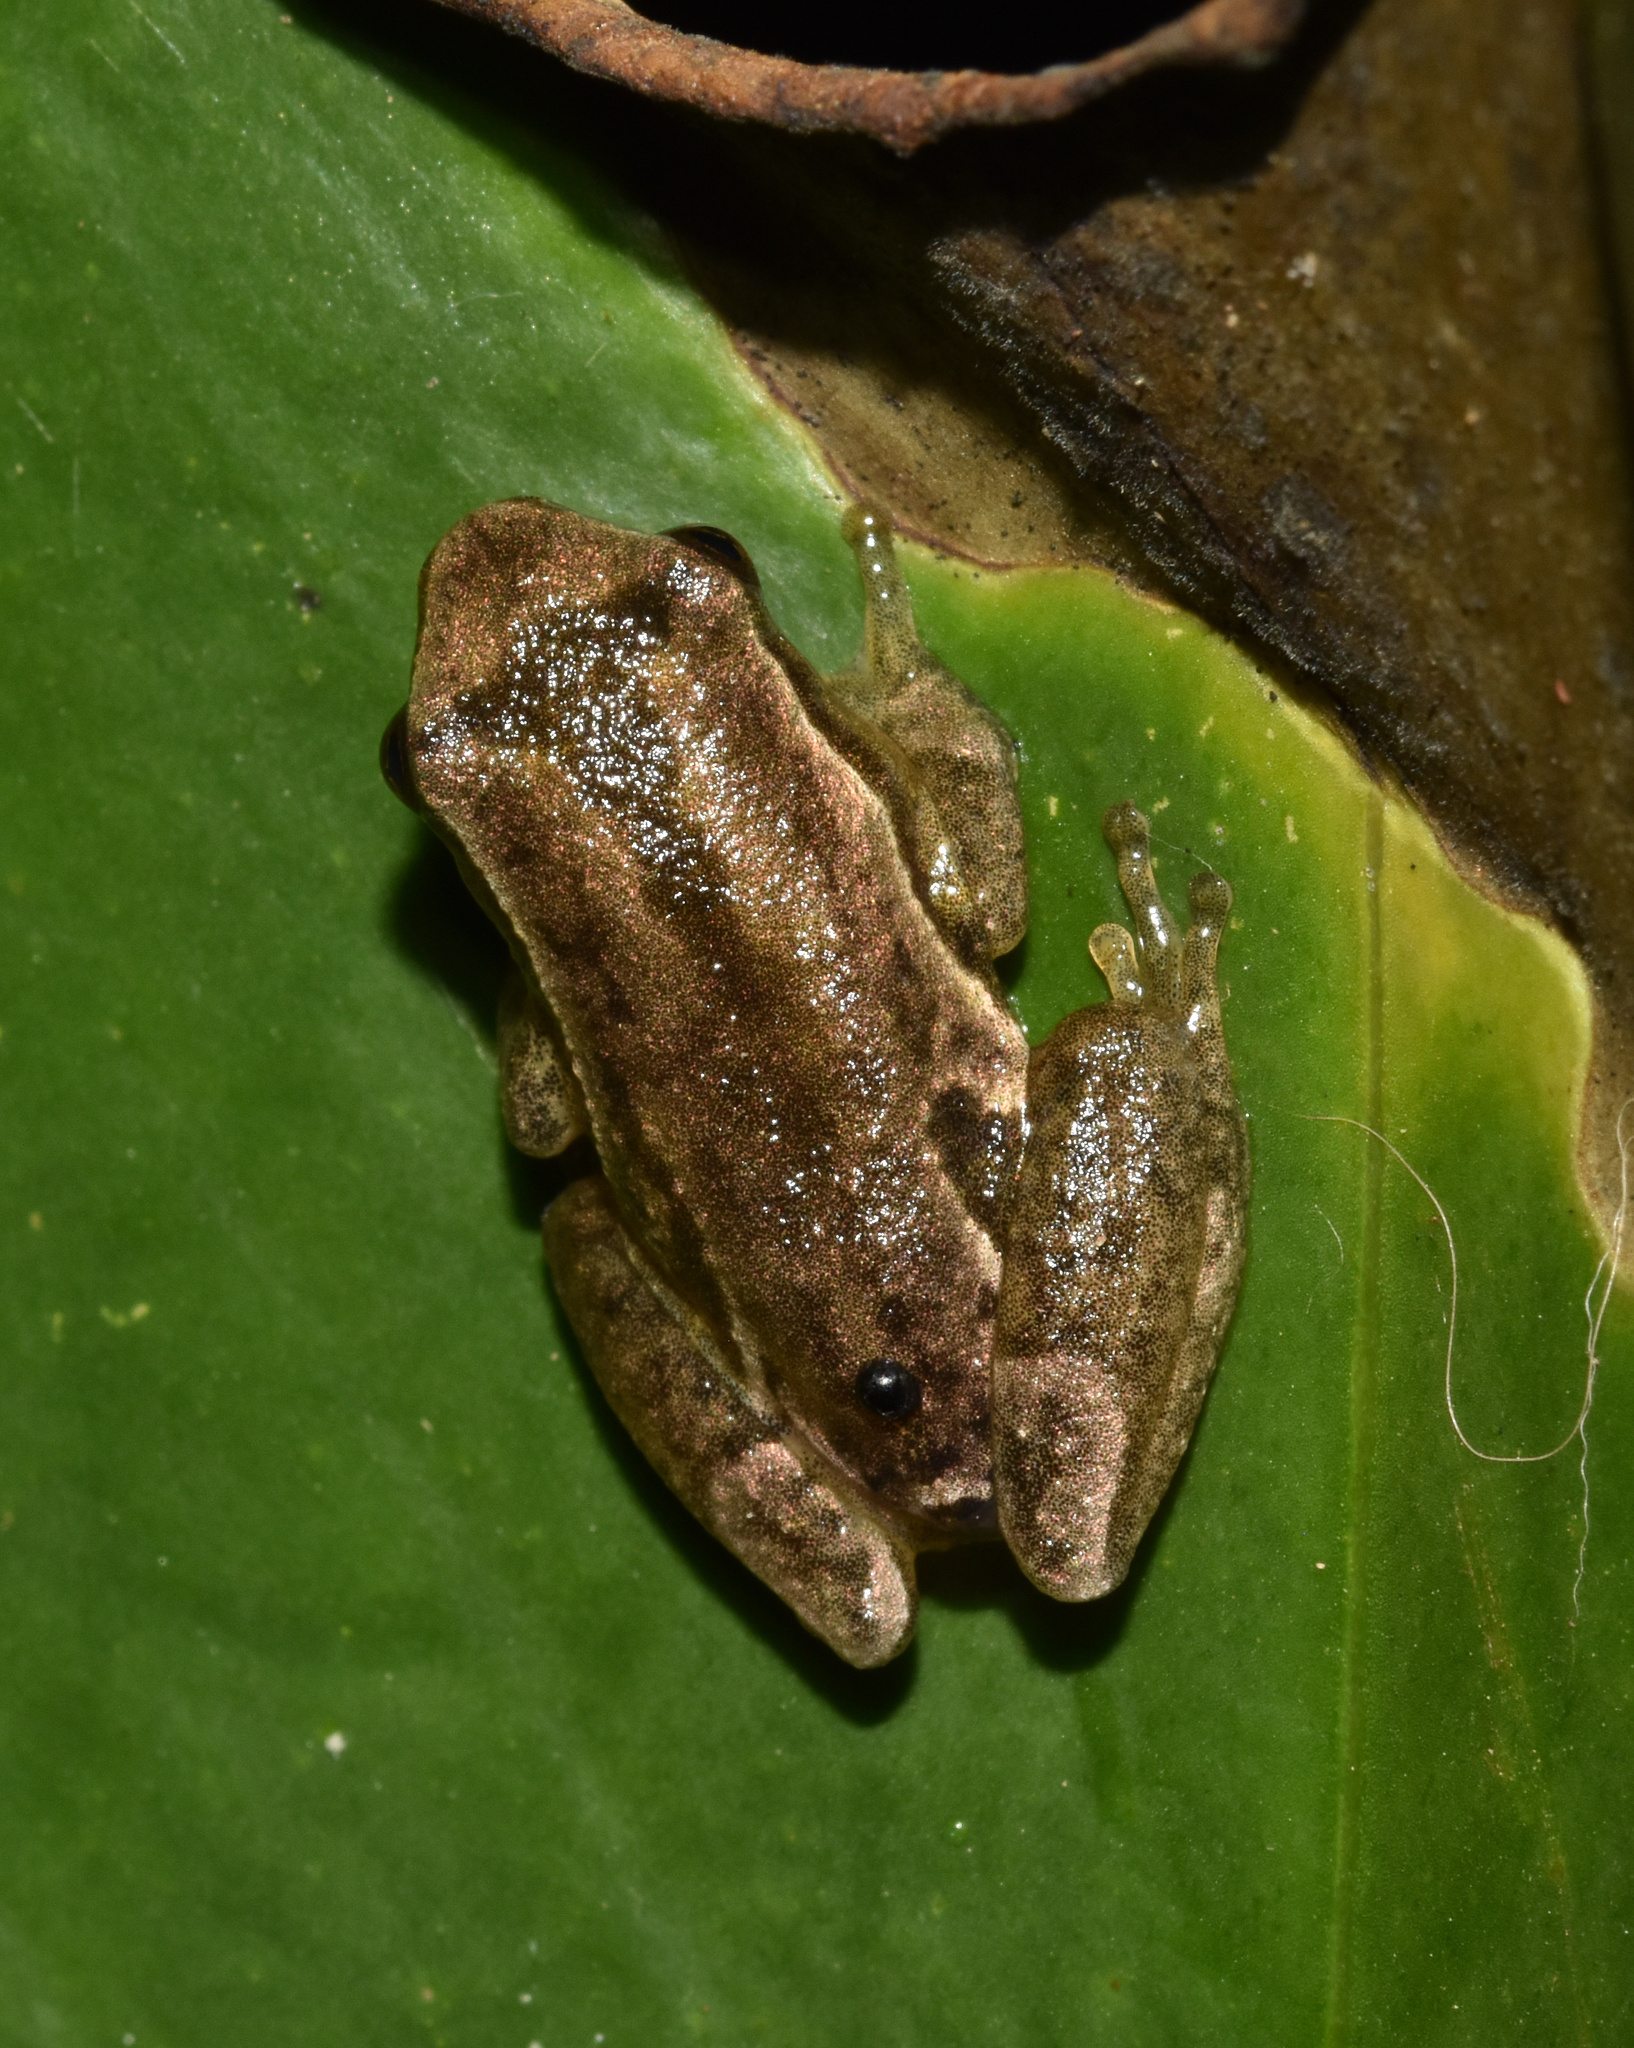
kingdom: Animalia
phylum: Chordata
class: Amphibia
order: Anura
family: Hyperoliidae
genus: Hyperolius
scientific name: Hyperolius marmoratus
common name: Painted reed frog
